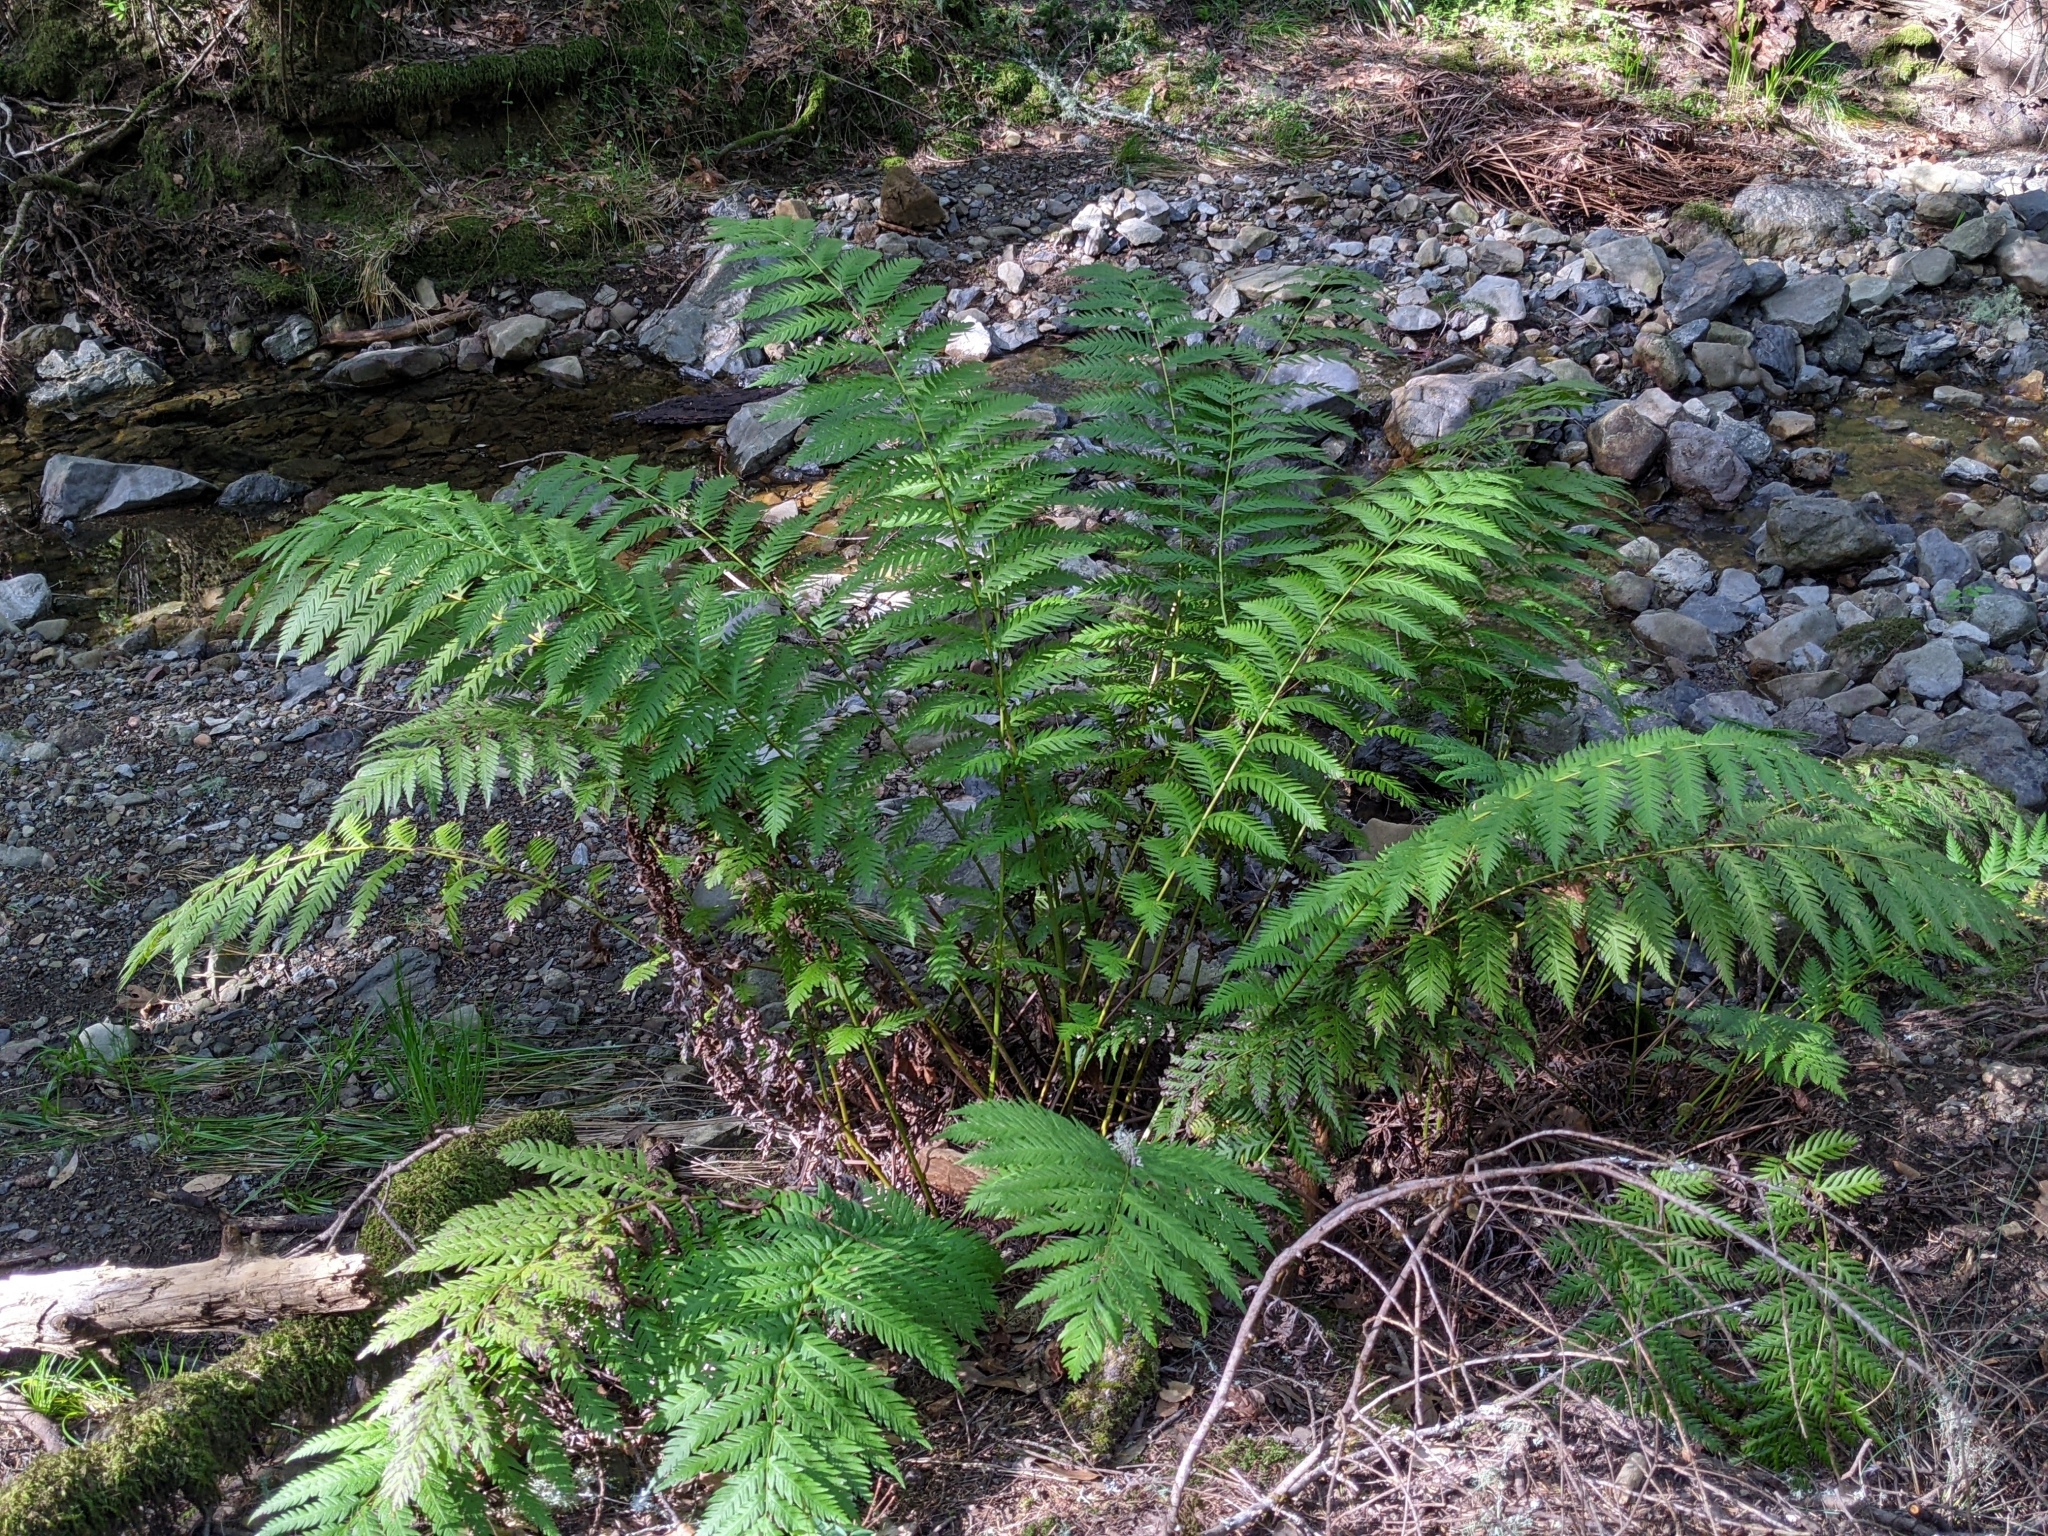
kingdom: Plantae
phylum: Tracheophyta
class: Polypodiopsida
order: Polypodiales
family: Blechnaceae
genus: Woodwardia
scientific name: Woodwardia fimbriata
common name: Giant chain fern
